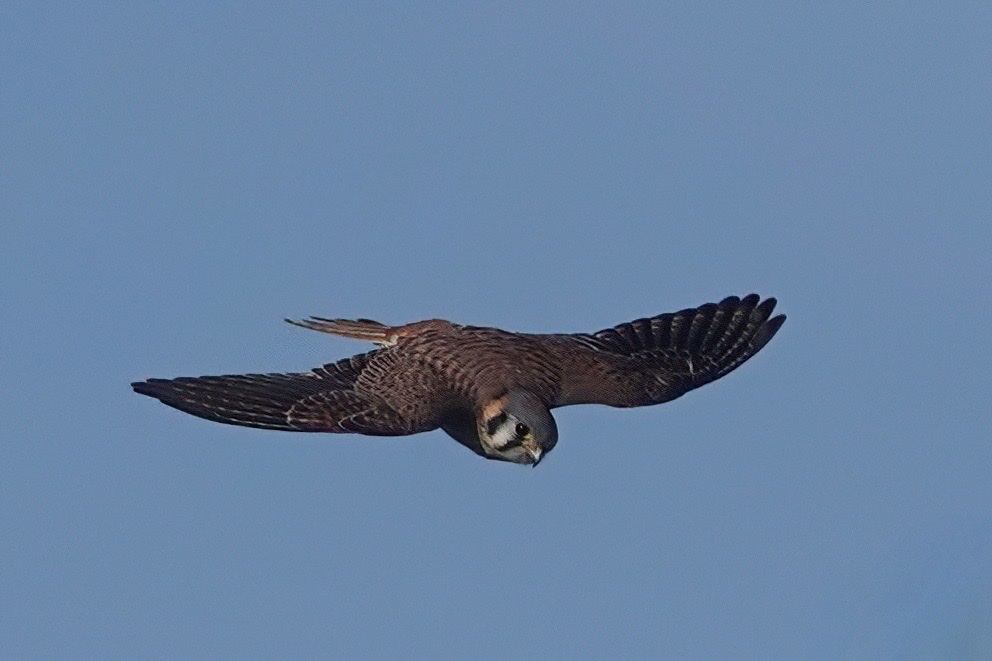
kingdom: Animalia
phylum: Chordata
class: Aves
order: Falconiformes
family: Falconidae
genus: Falco
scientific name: Falco sparverius
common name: American kestrel
